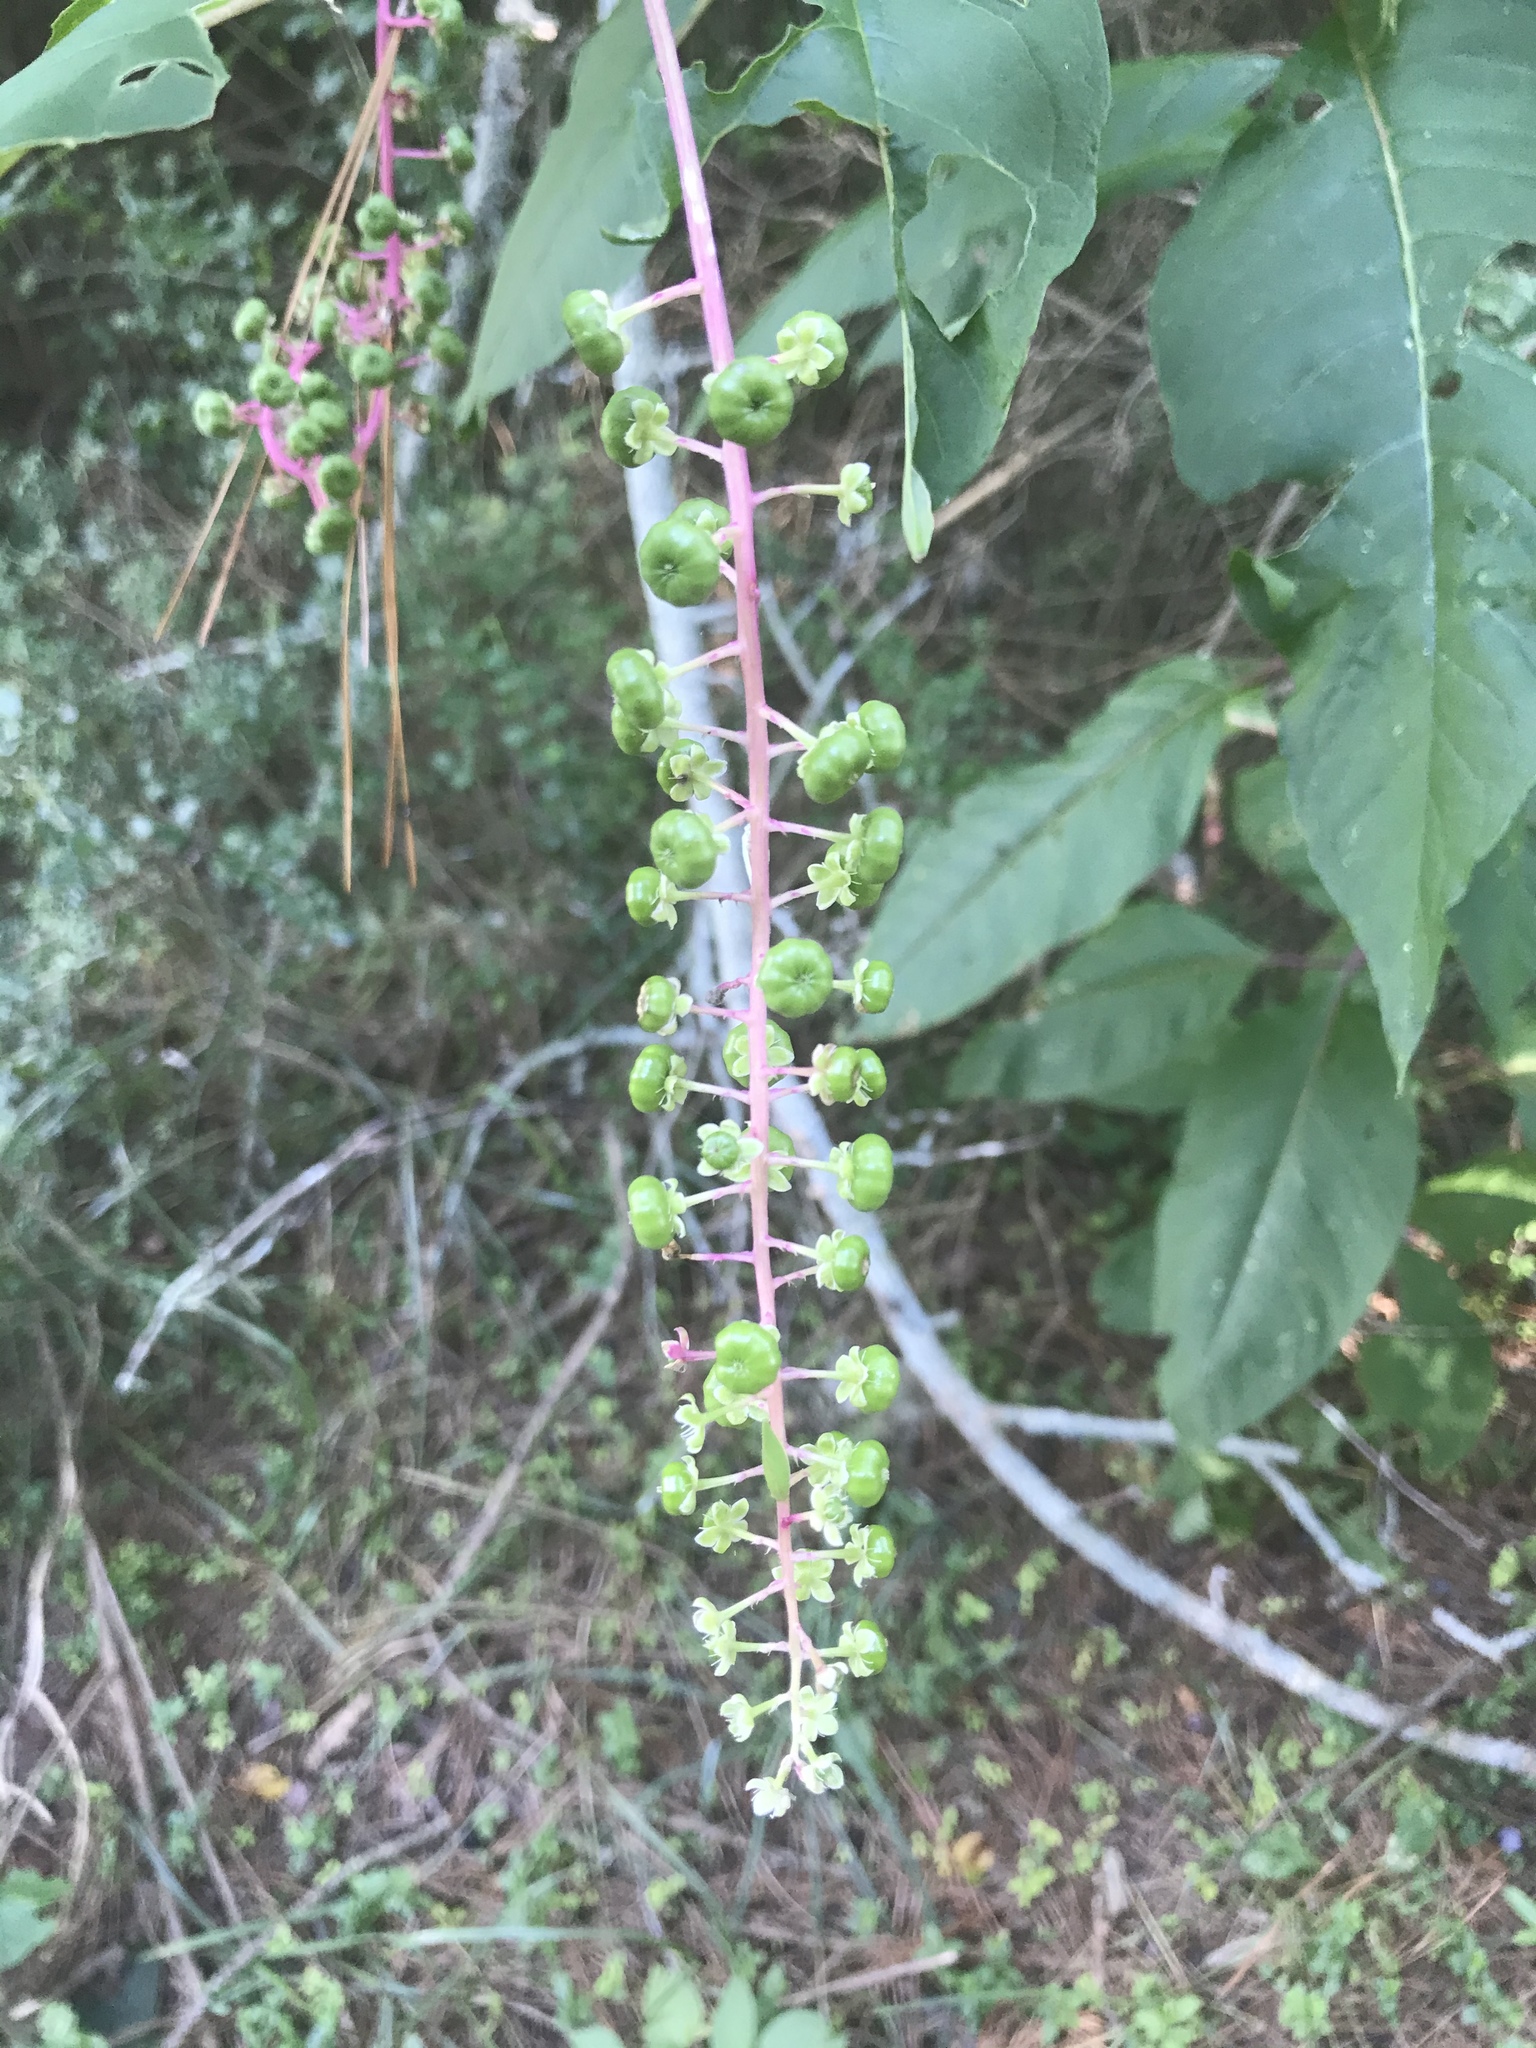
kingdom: Plantae
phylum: Tracheophyta
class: Magnoliopsida
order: Caryophyllales
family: Phytolaccaceae
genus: Phytolacca
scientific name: Phytolacca americana
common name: American pokeweed
